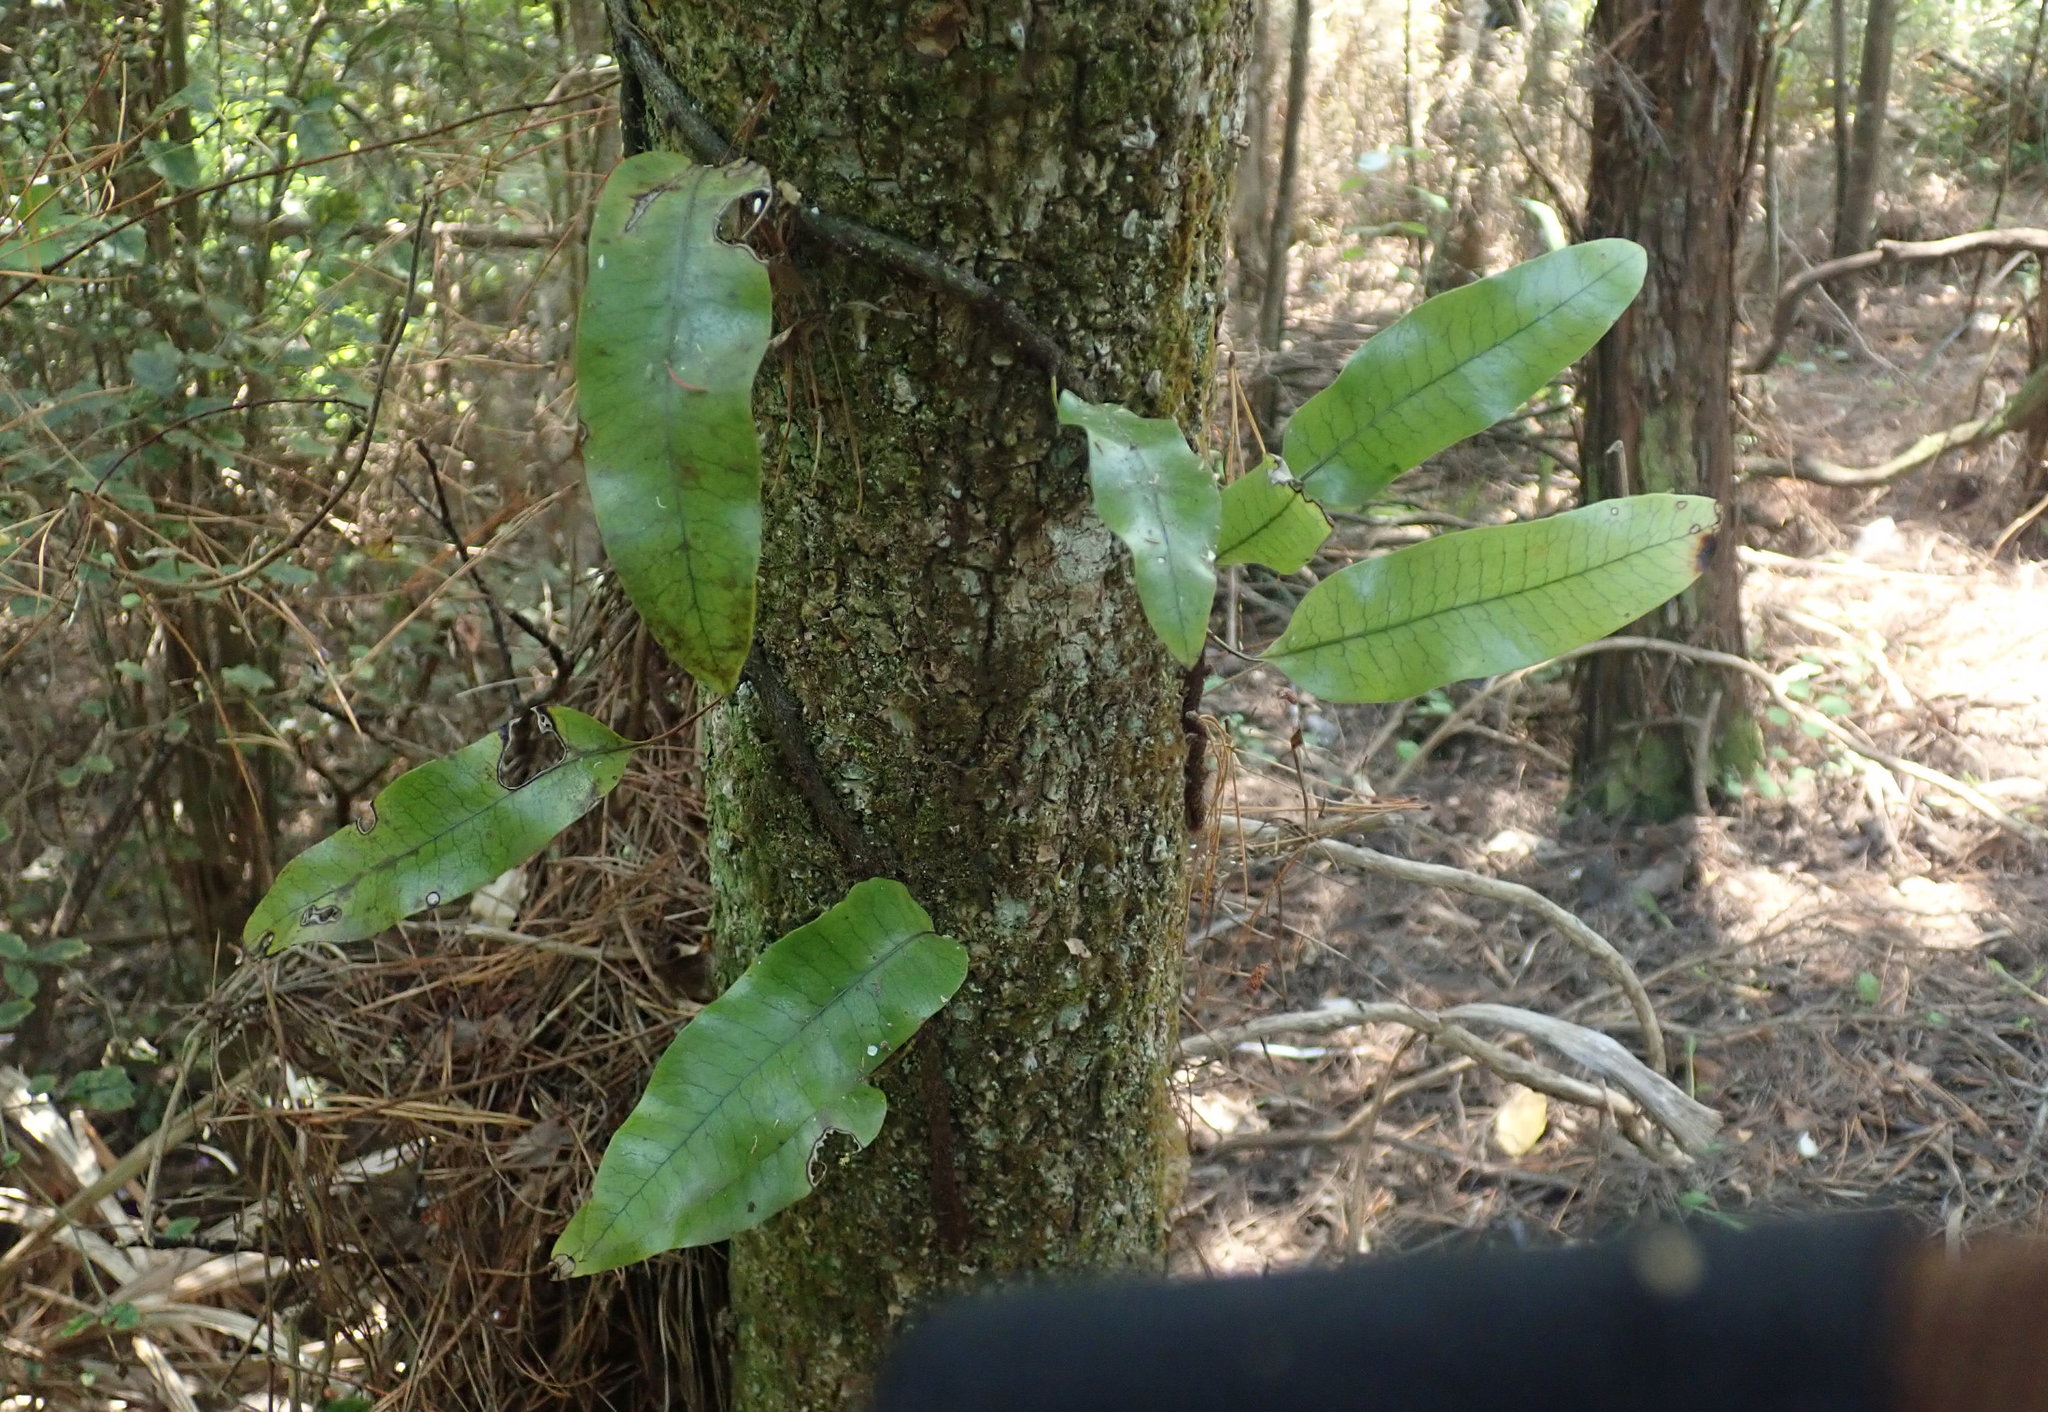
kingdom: Plantae
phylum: Tracheophyta
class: Polypodiopsida
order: Polypodiales
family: Polypodiaceae
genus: Lecanopteris
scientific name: Lecanopteris pustulata
